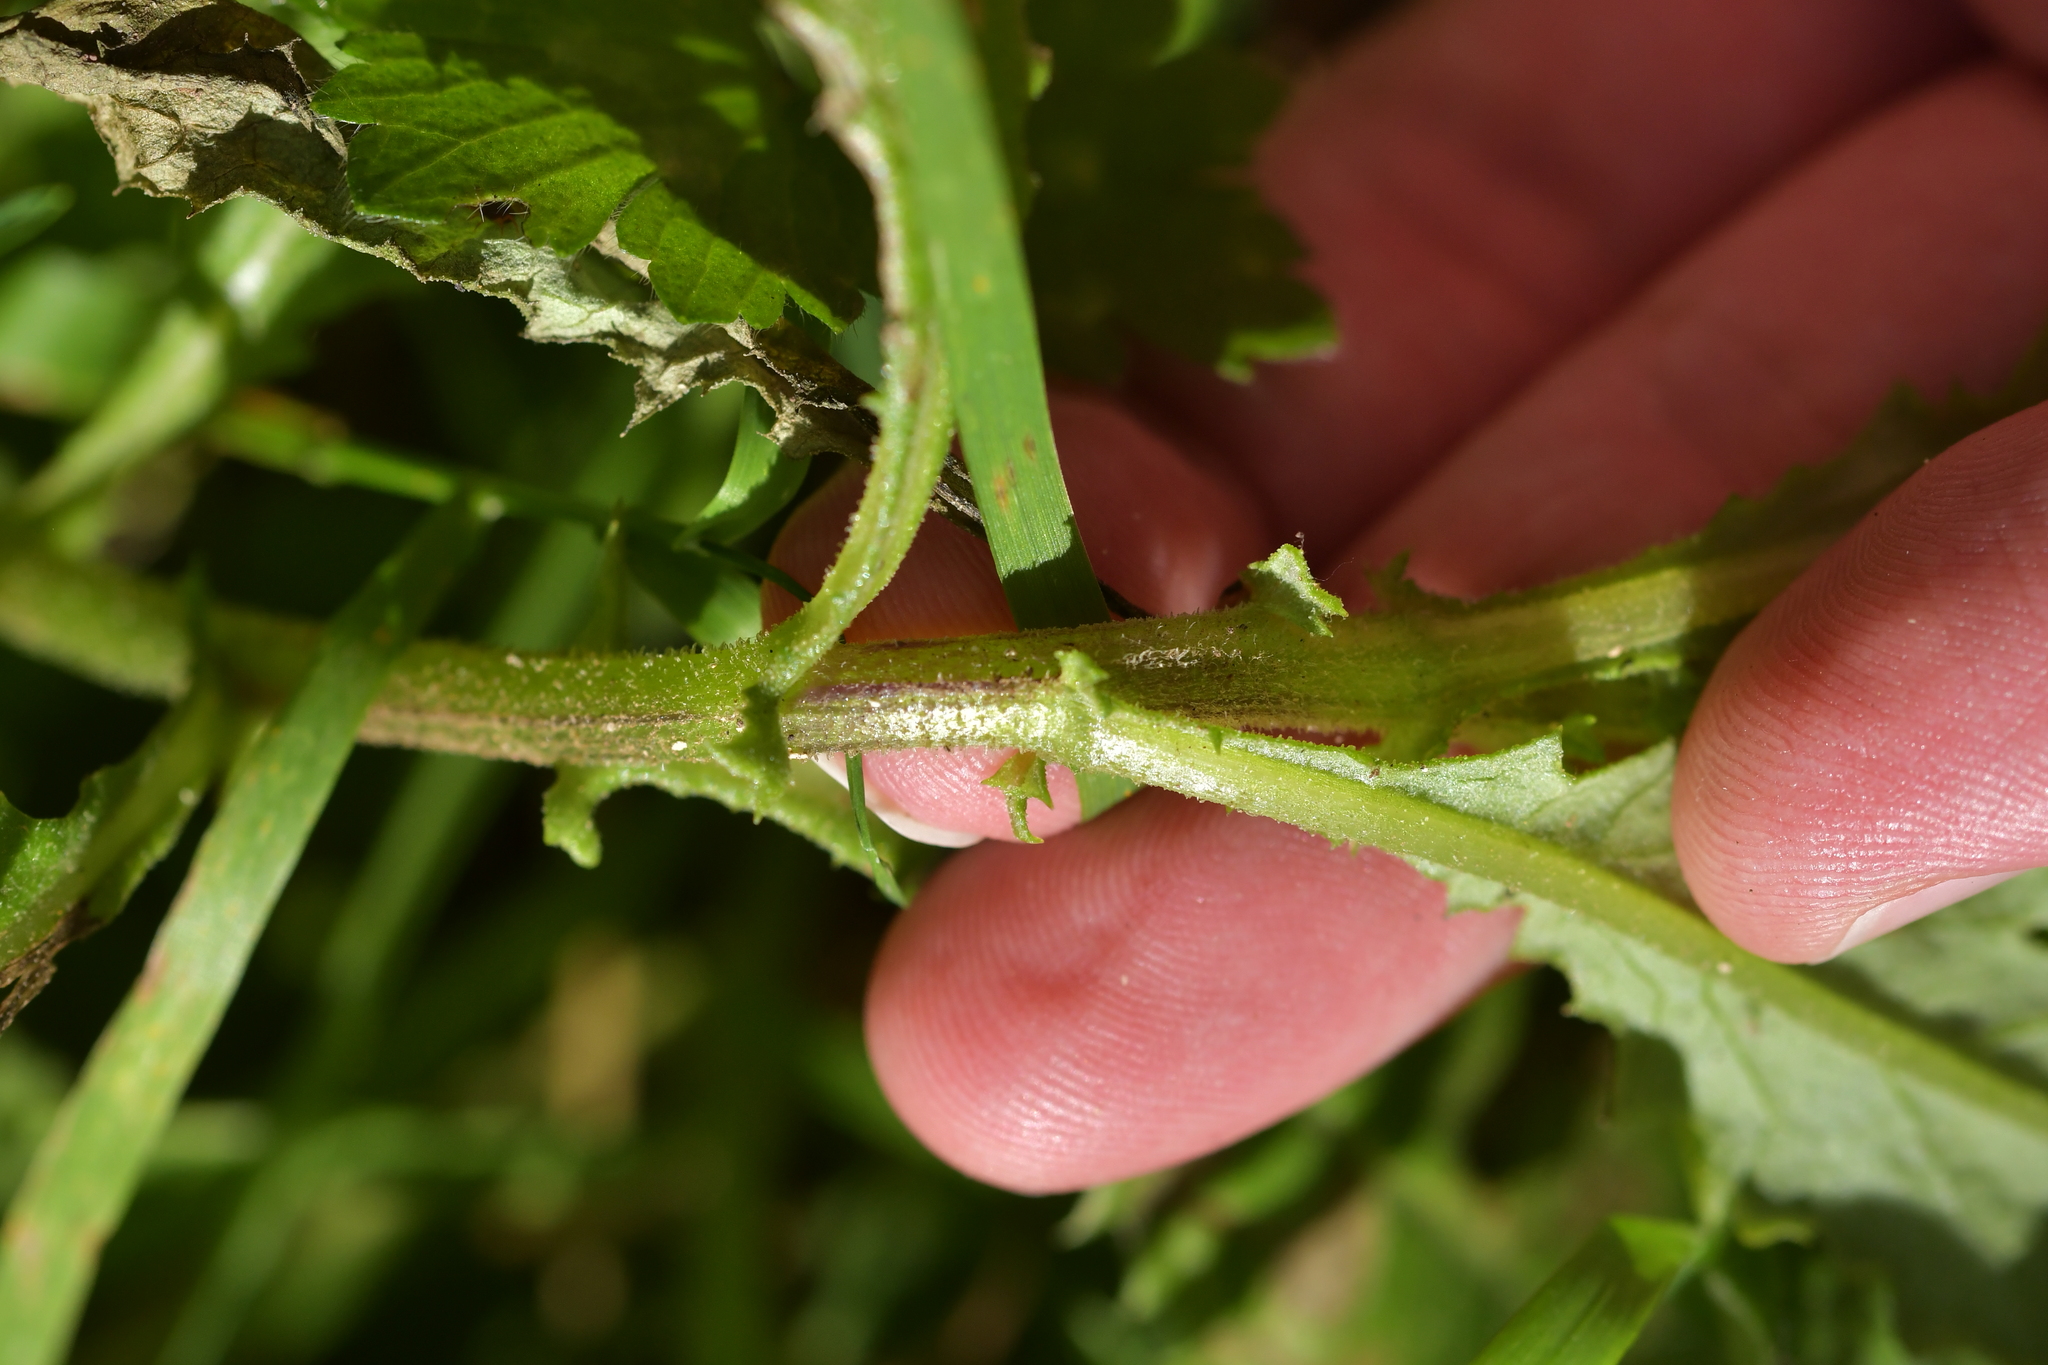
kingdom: Plantae
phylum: Tracheophyta
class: Magnoliopsida
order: Asterales
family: Asteraceae
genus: Senecio
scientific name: Senecio minimus
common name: Toothed fireweed
